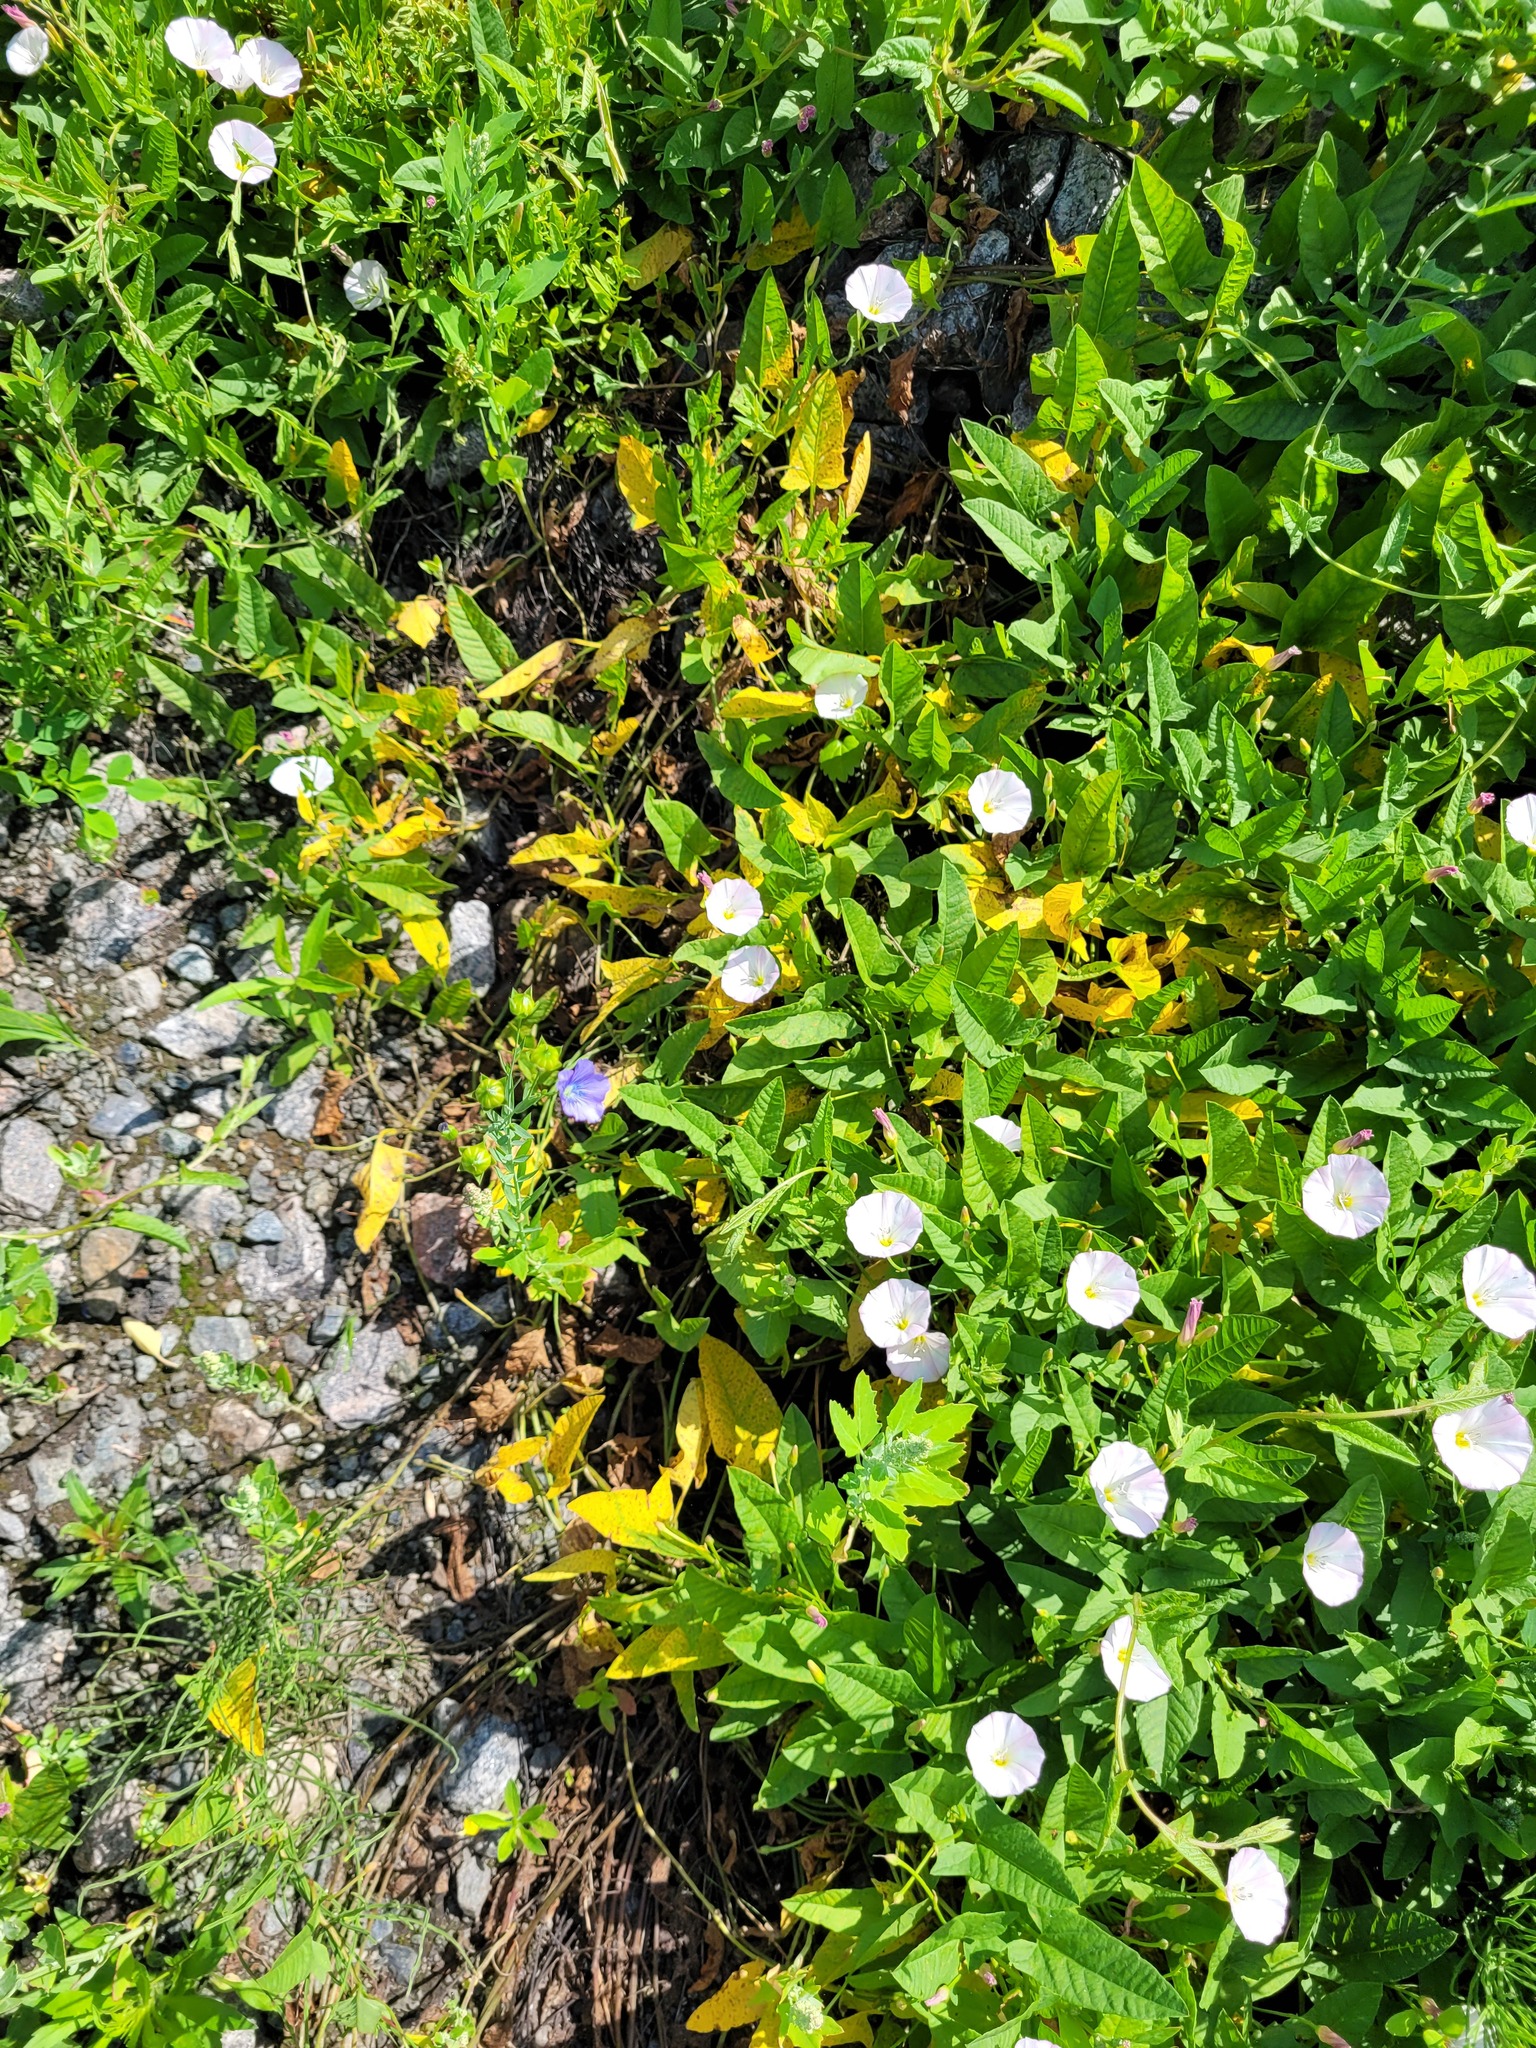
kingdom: Plantae
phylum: Tracheophyta
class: Magnoliopsida
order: Solanales
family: Convolvulaceae
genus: Convolvulus
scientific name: Convolvulus arvensis
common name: Field bindweed
